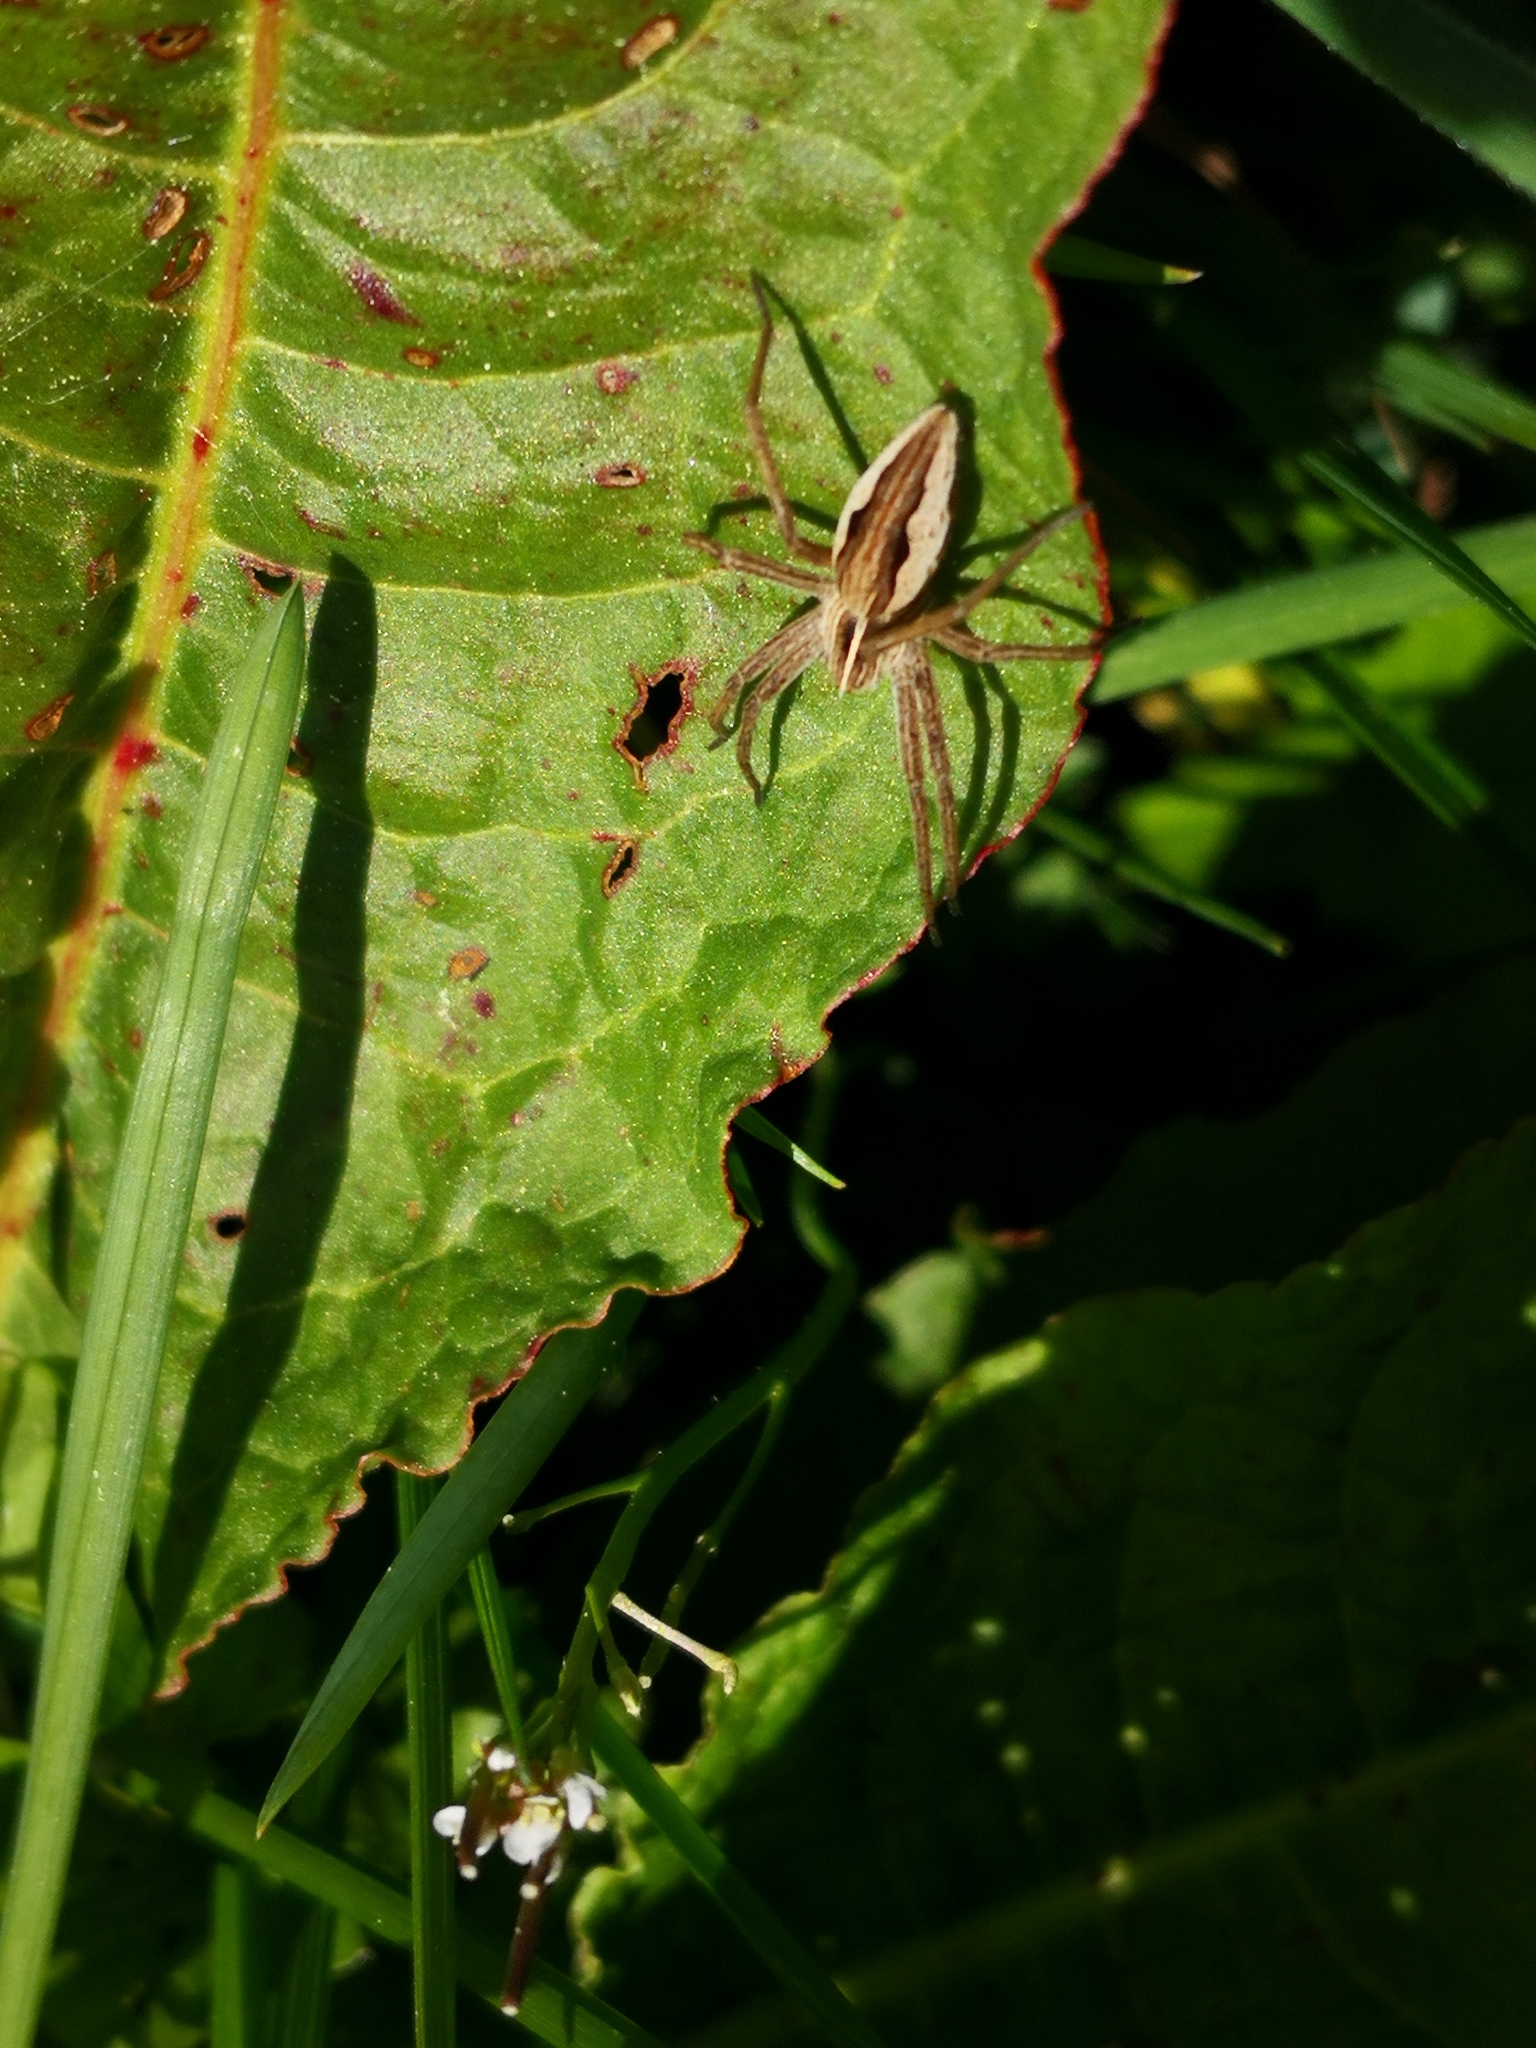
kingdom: Animalia
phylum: Arthropoda
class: Arachnida
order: Araneae
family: Pisauridae
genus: Pisaura
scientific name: Pisaura mirabilis
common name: Tent spider
